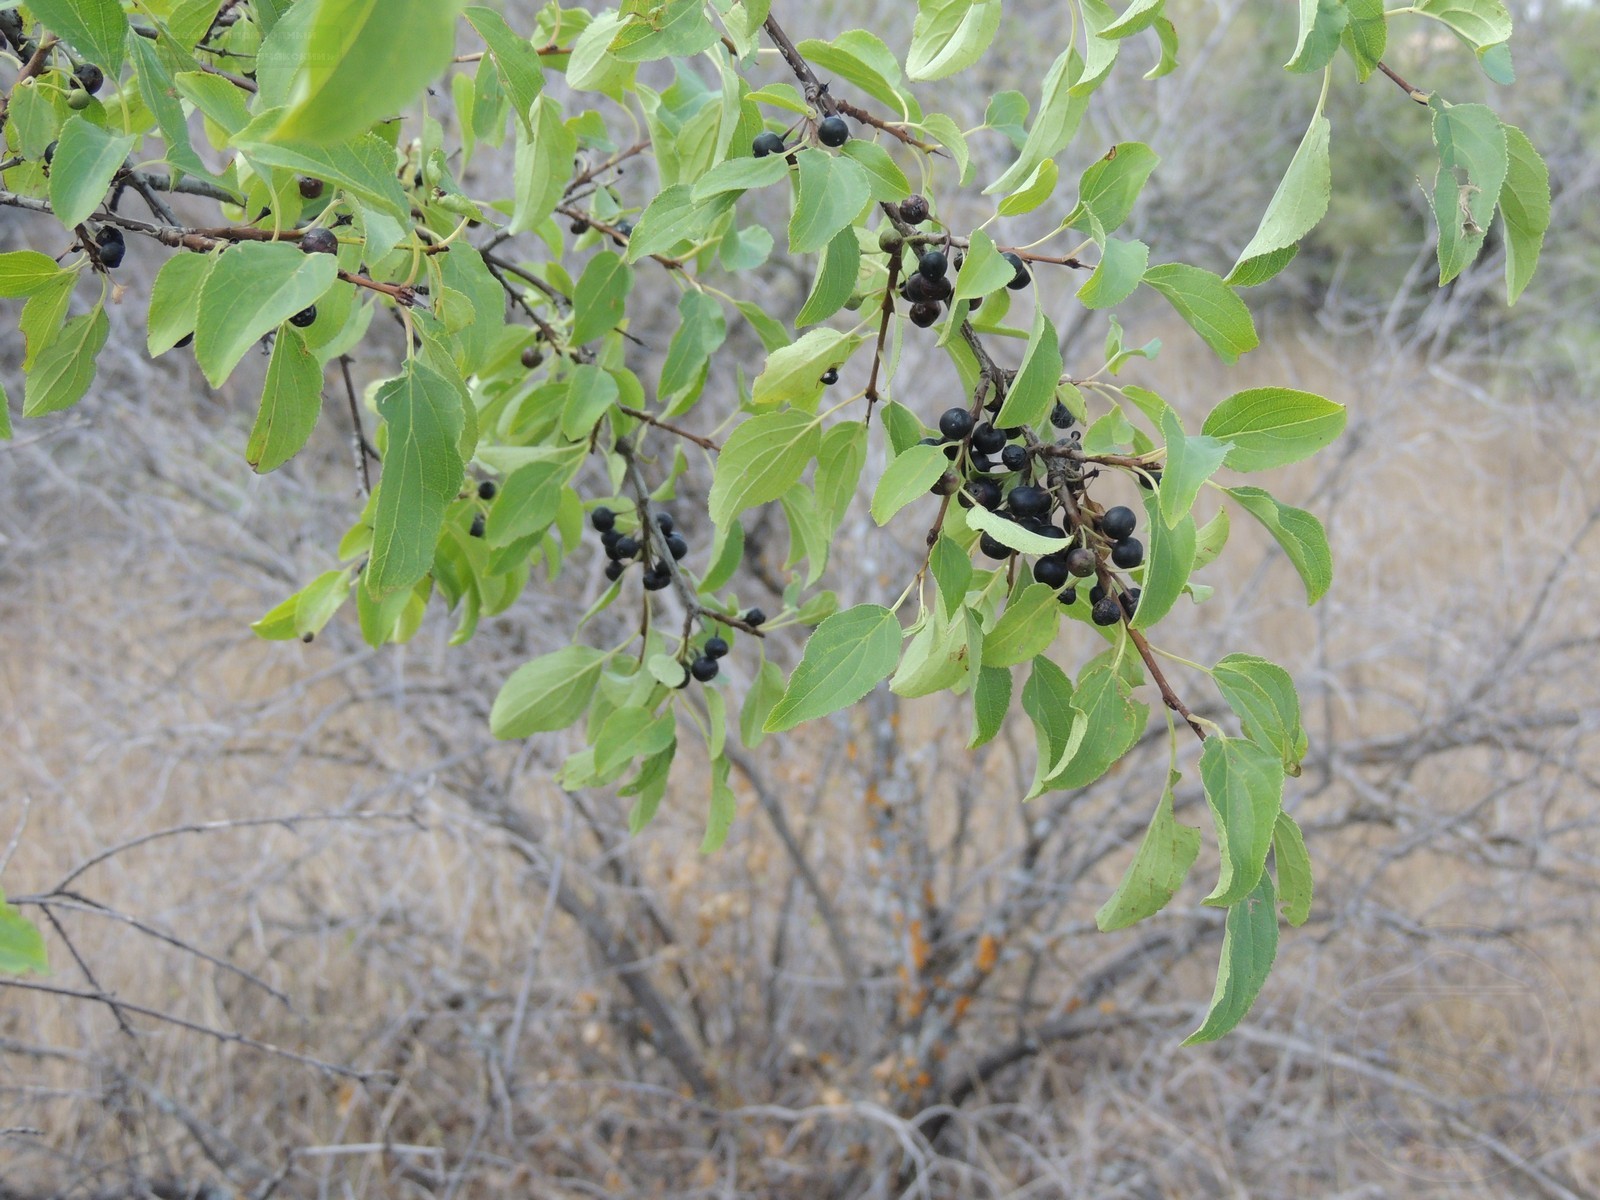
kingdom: Plantae
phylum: Tracheophyta
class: Magnoliopsida
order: Rosales
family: Rhamnaceae
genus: Rhamnus
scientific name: Rhamnus cathartica
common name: Common buckthorn
